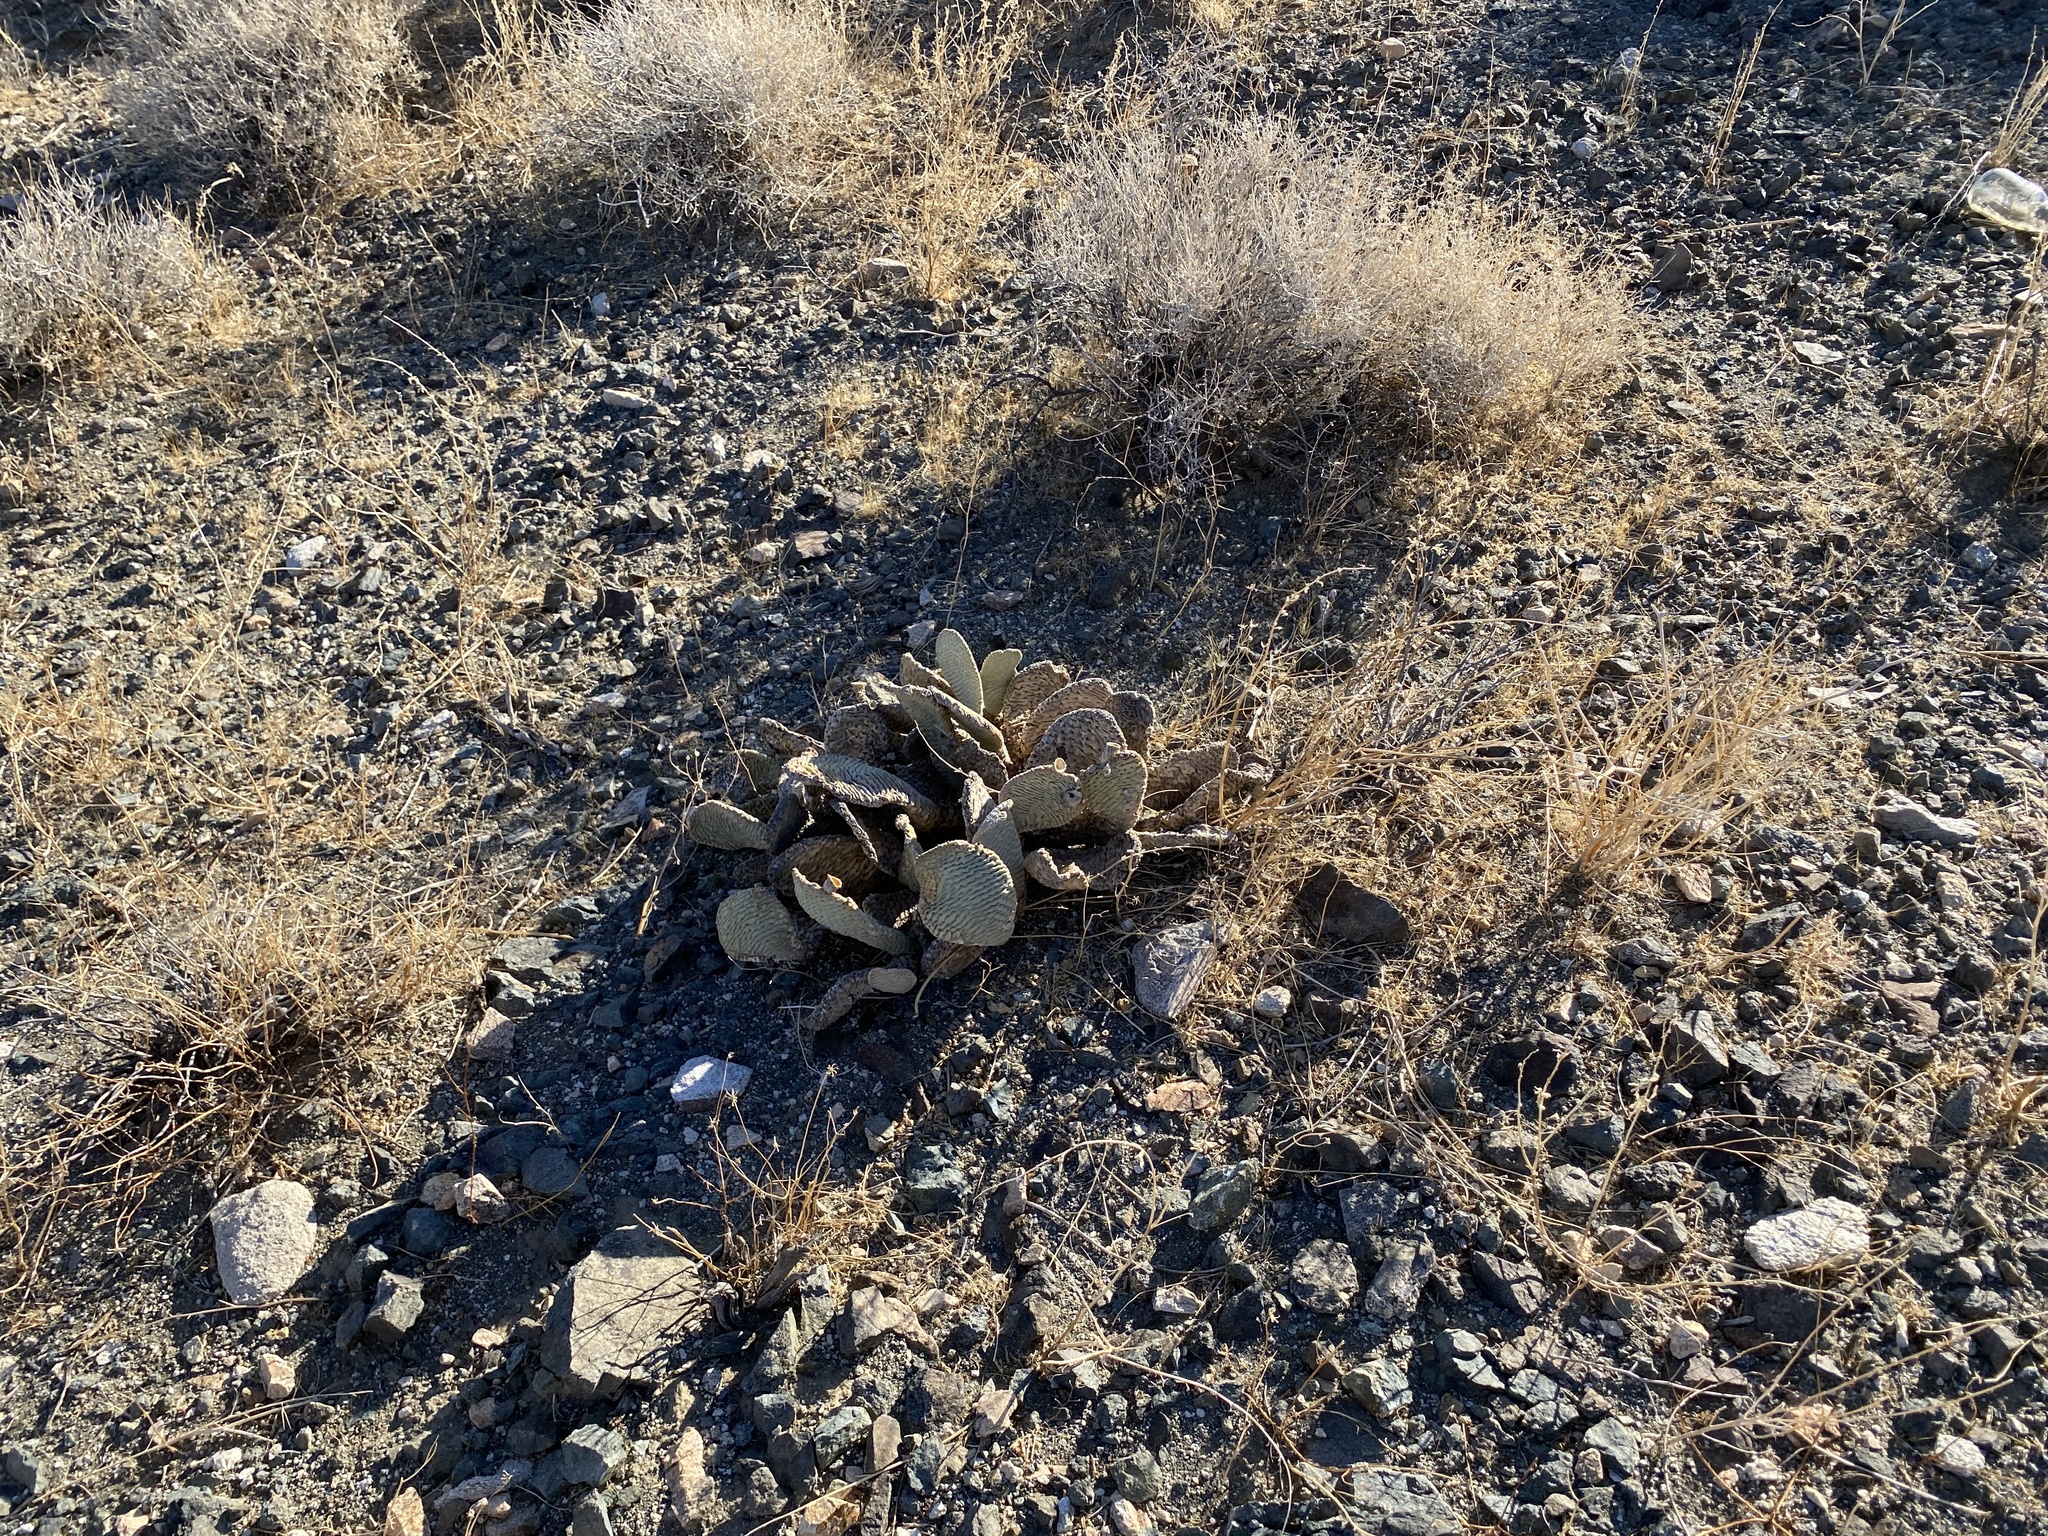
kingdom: Plantae
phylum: Tracheophyta
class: Magnoliopsida
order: Caryophyllales
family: Cactaceae
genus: Opuntia
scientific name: Opuntia basilaris
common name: Beavertail prickly-pear
